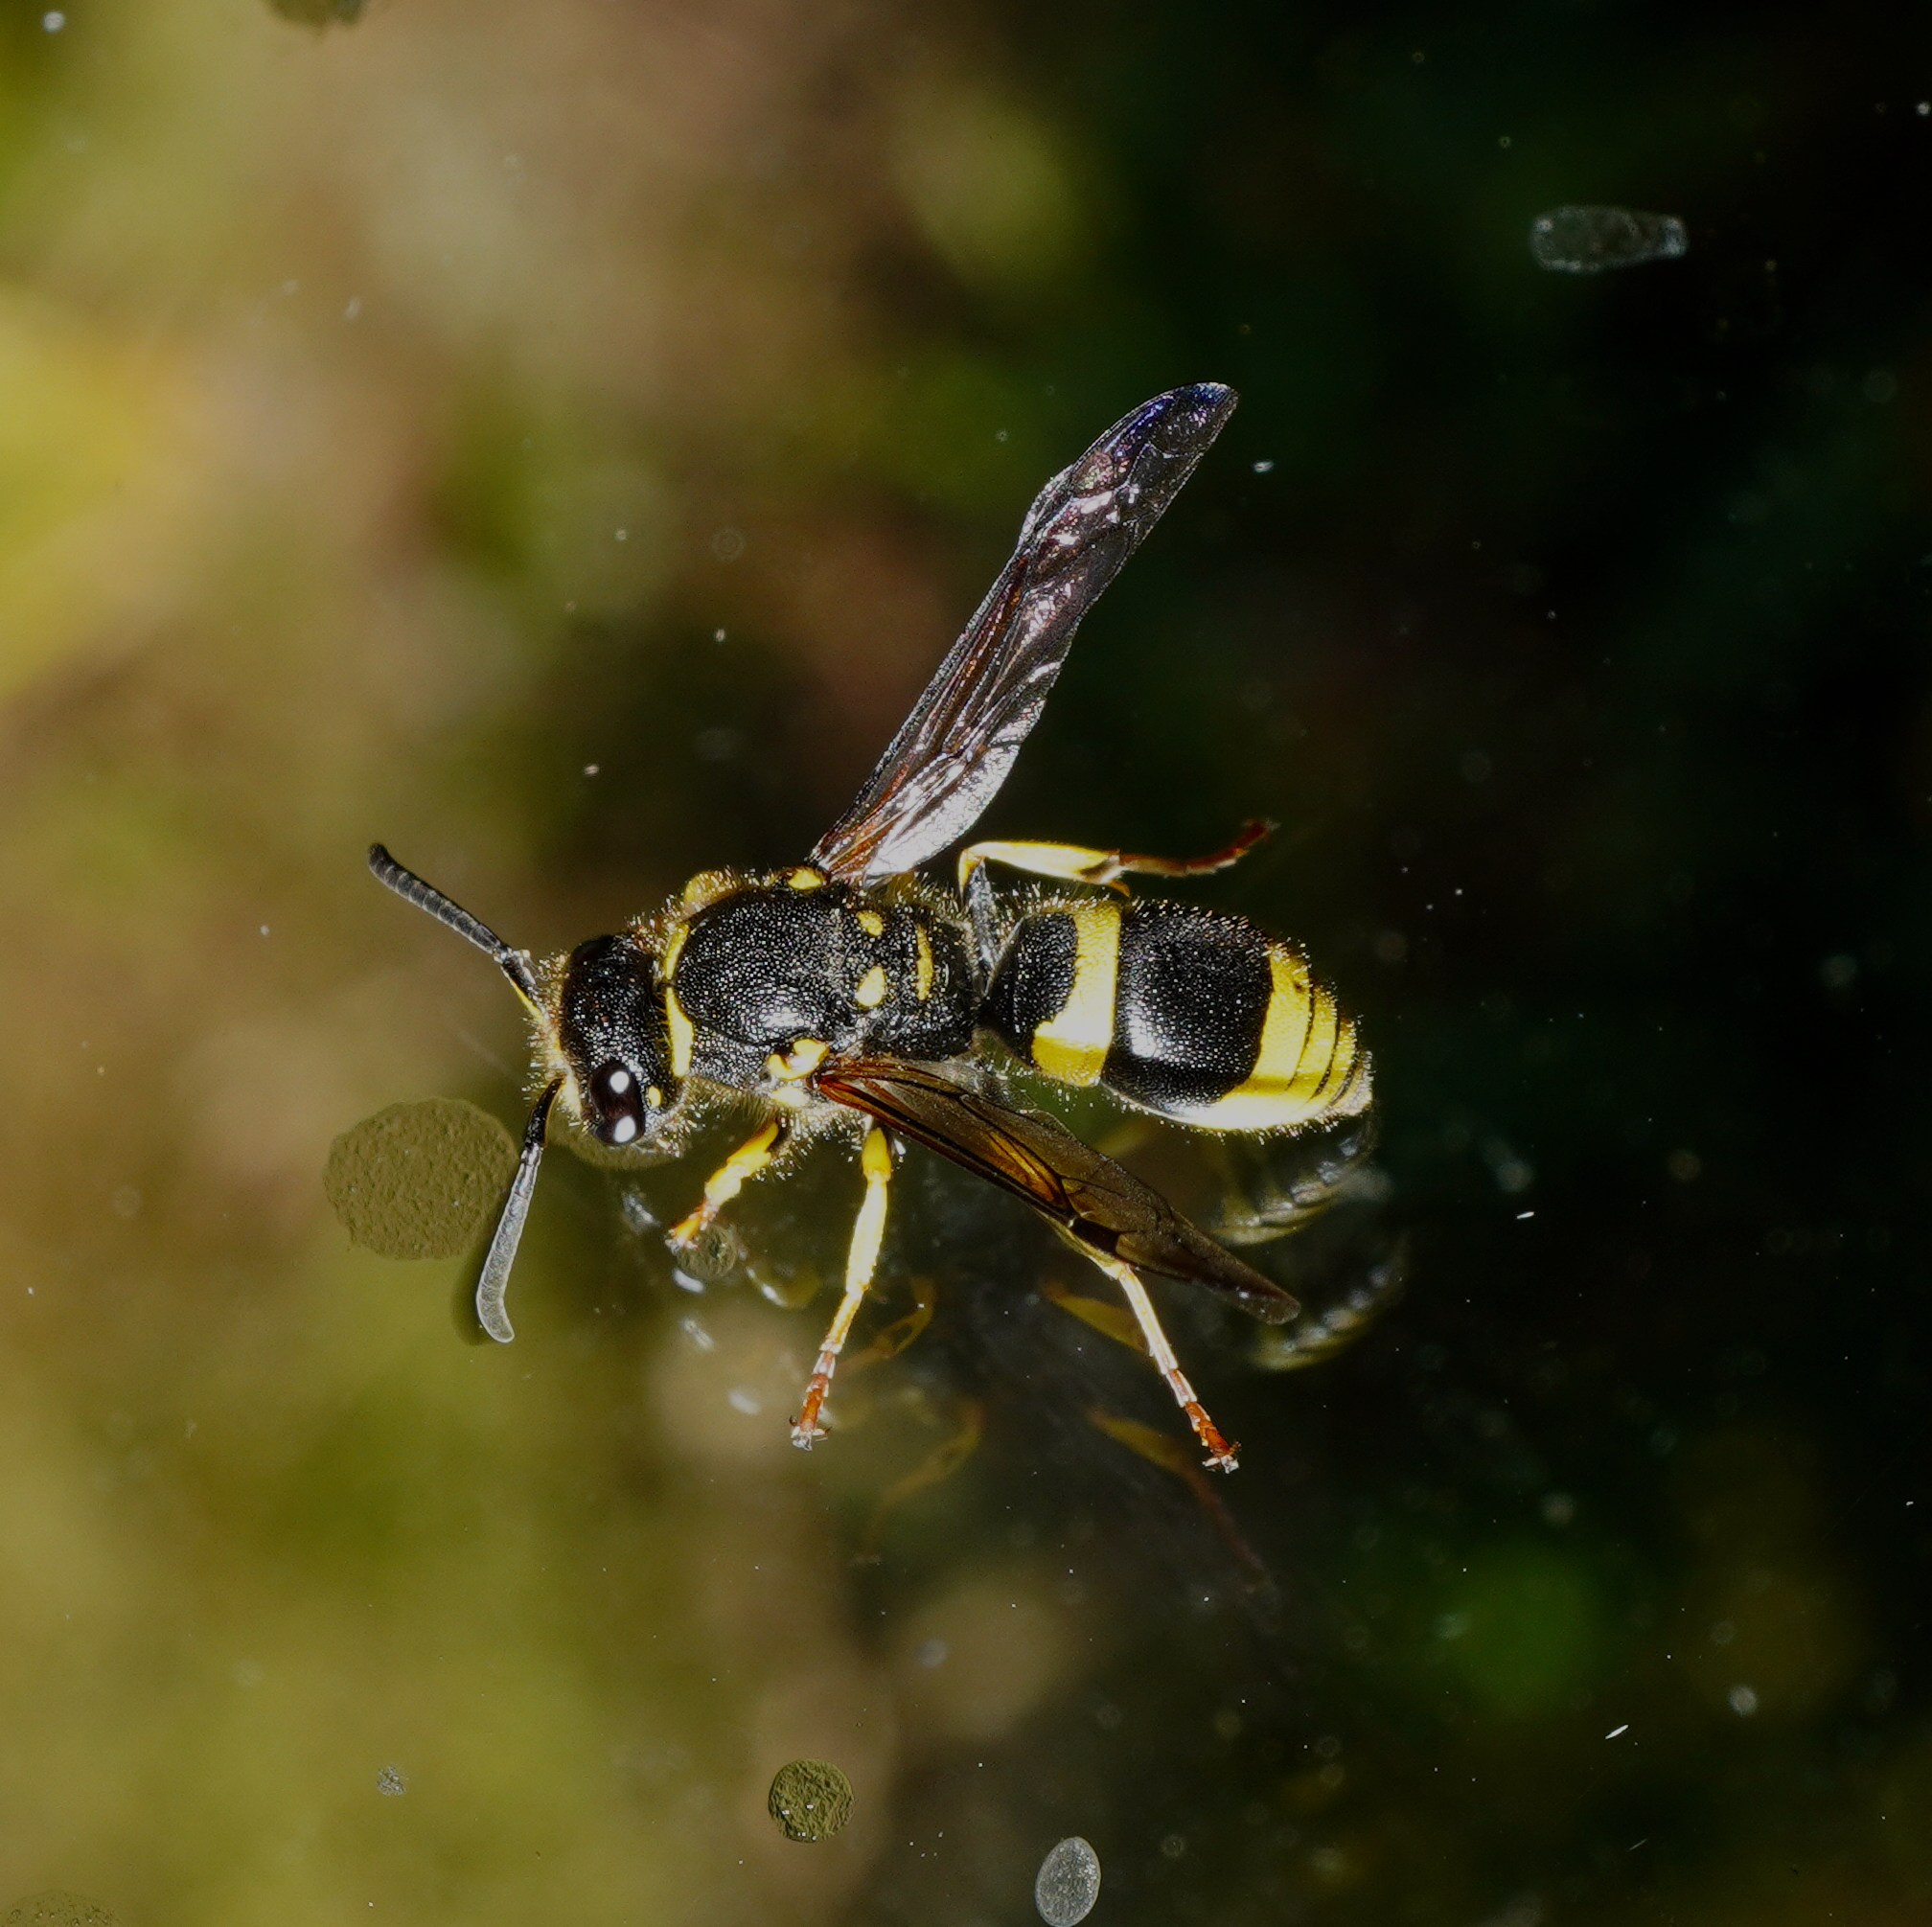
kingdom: Animalia
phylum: Arthropoda
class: Insecta
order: Hymenoptera
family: Vespidae
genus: Ancistrocerus
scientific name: Ancistrocerus gazella
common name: European tube wasp
